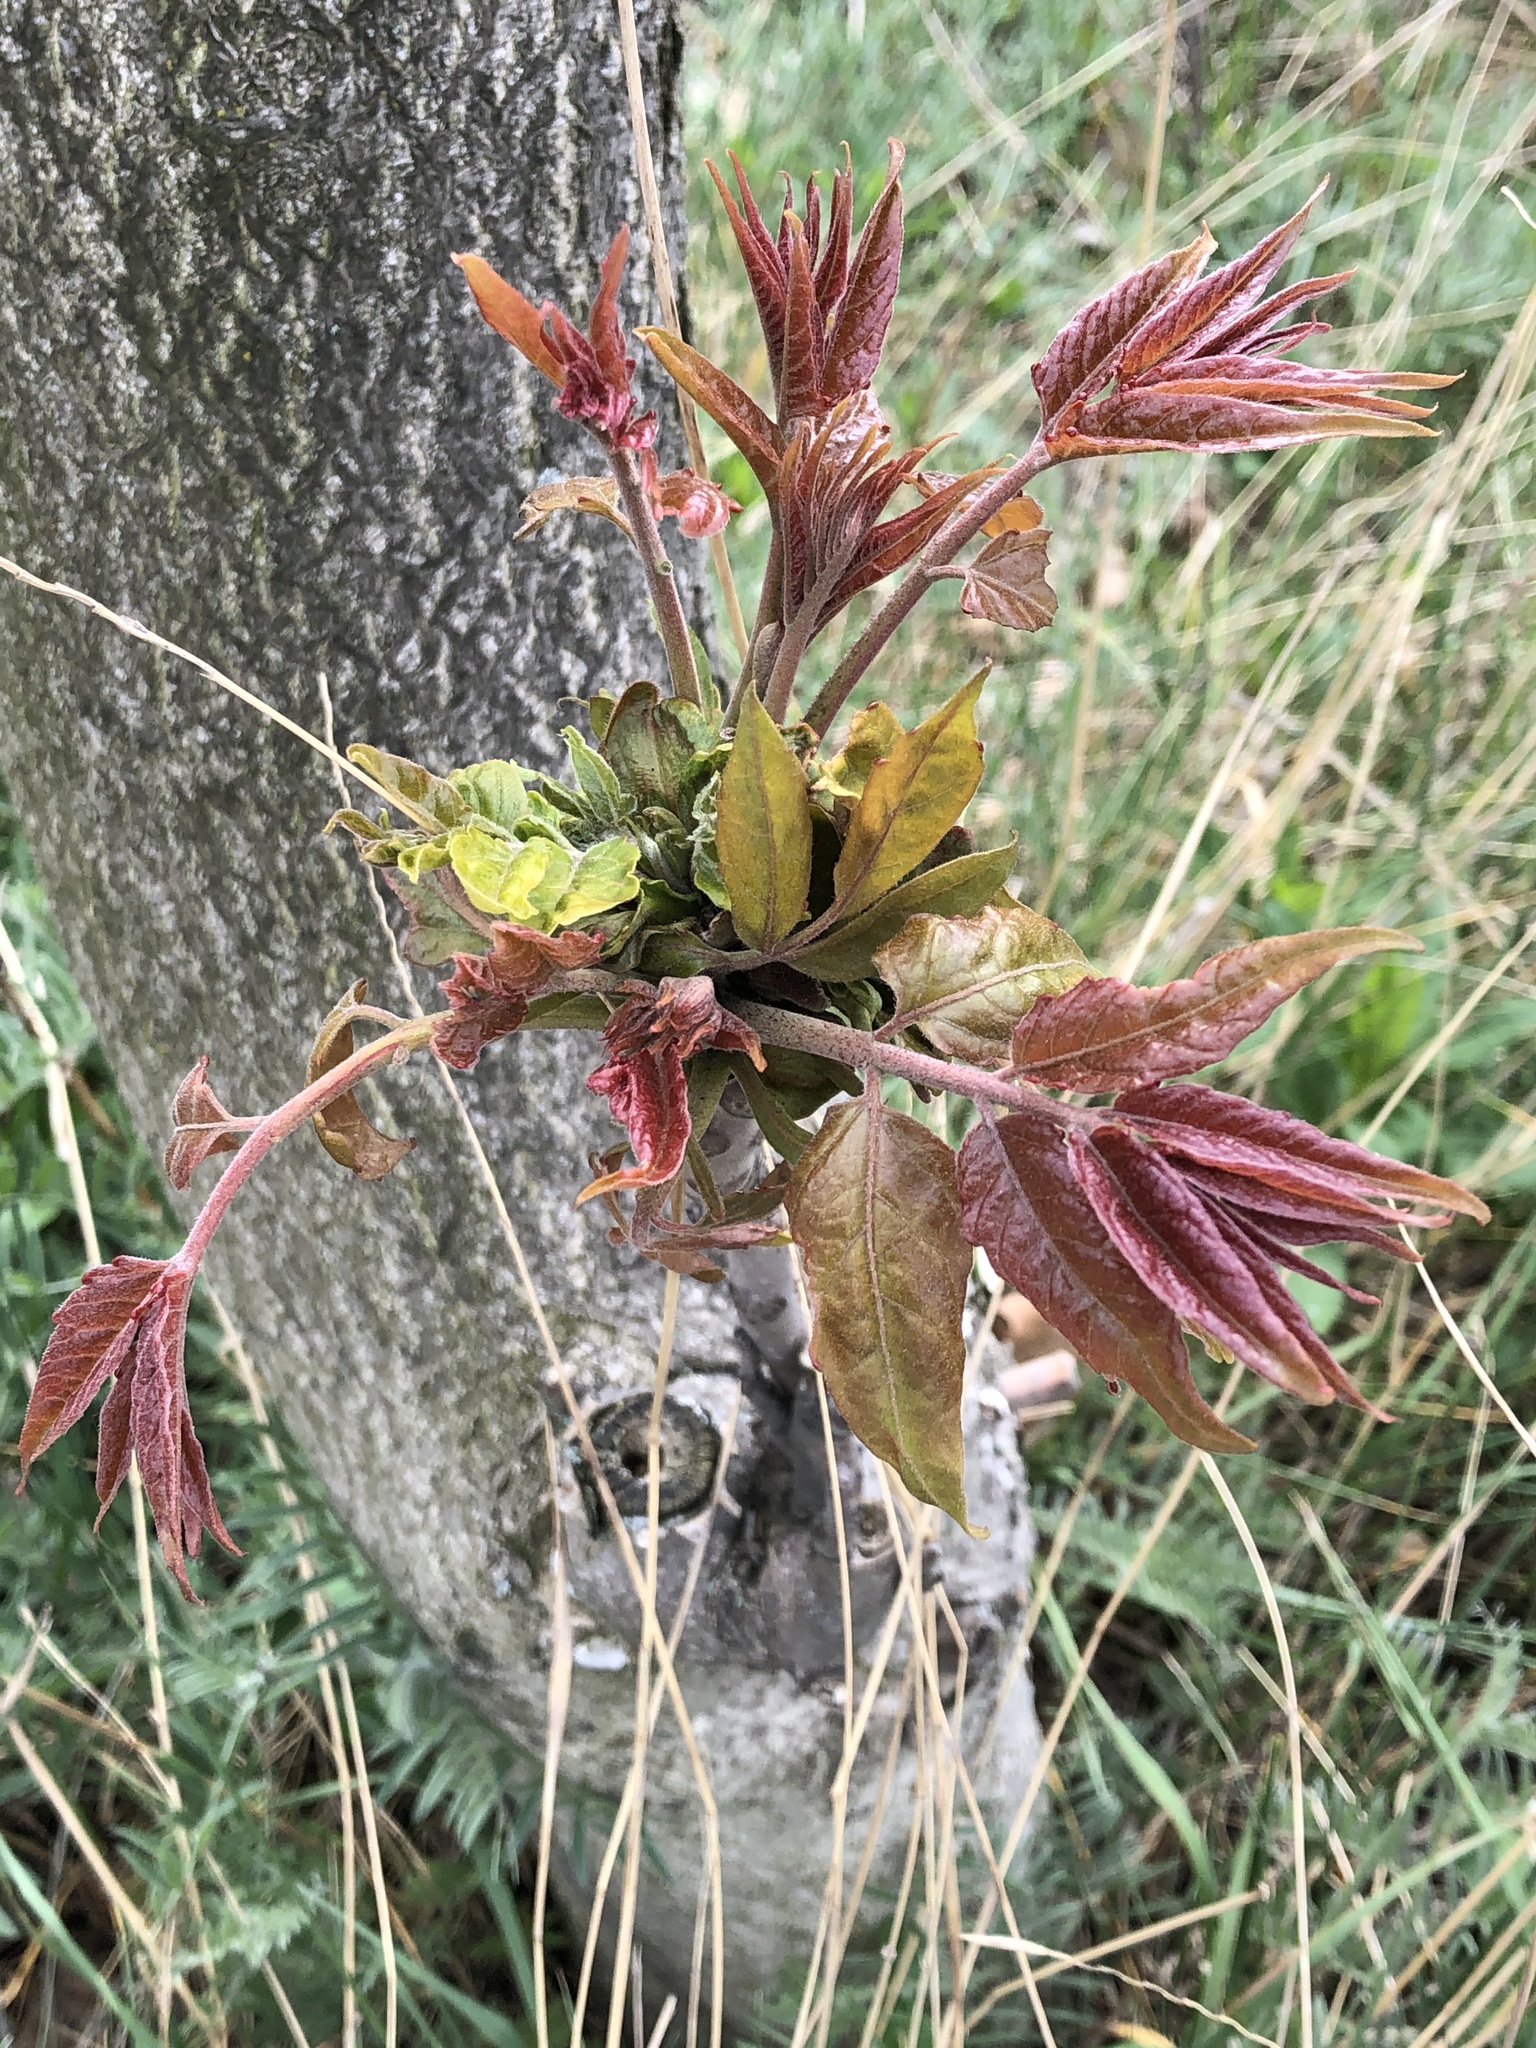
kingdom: Plantae
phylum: Tracheophyta
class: Magnoliopsida
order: Sapindales
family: Simaroubaceae
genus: Ailanthus
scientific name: Ailanthus altissima
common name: Tree-of-heaven
